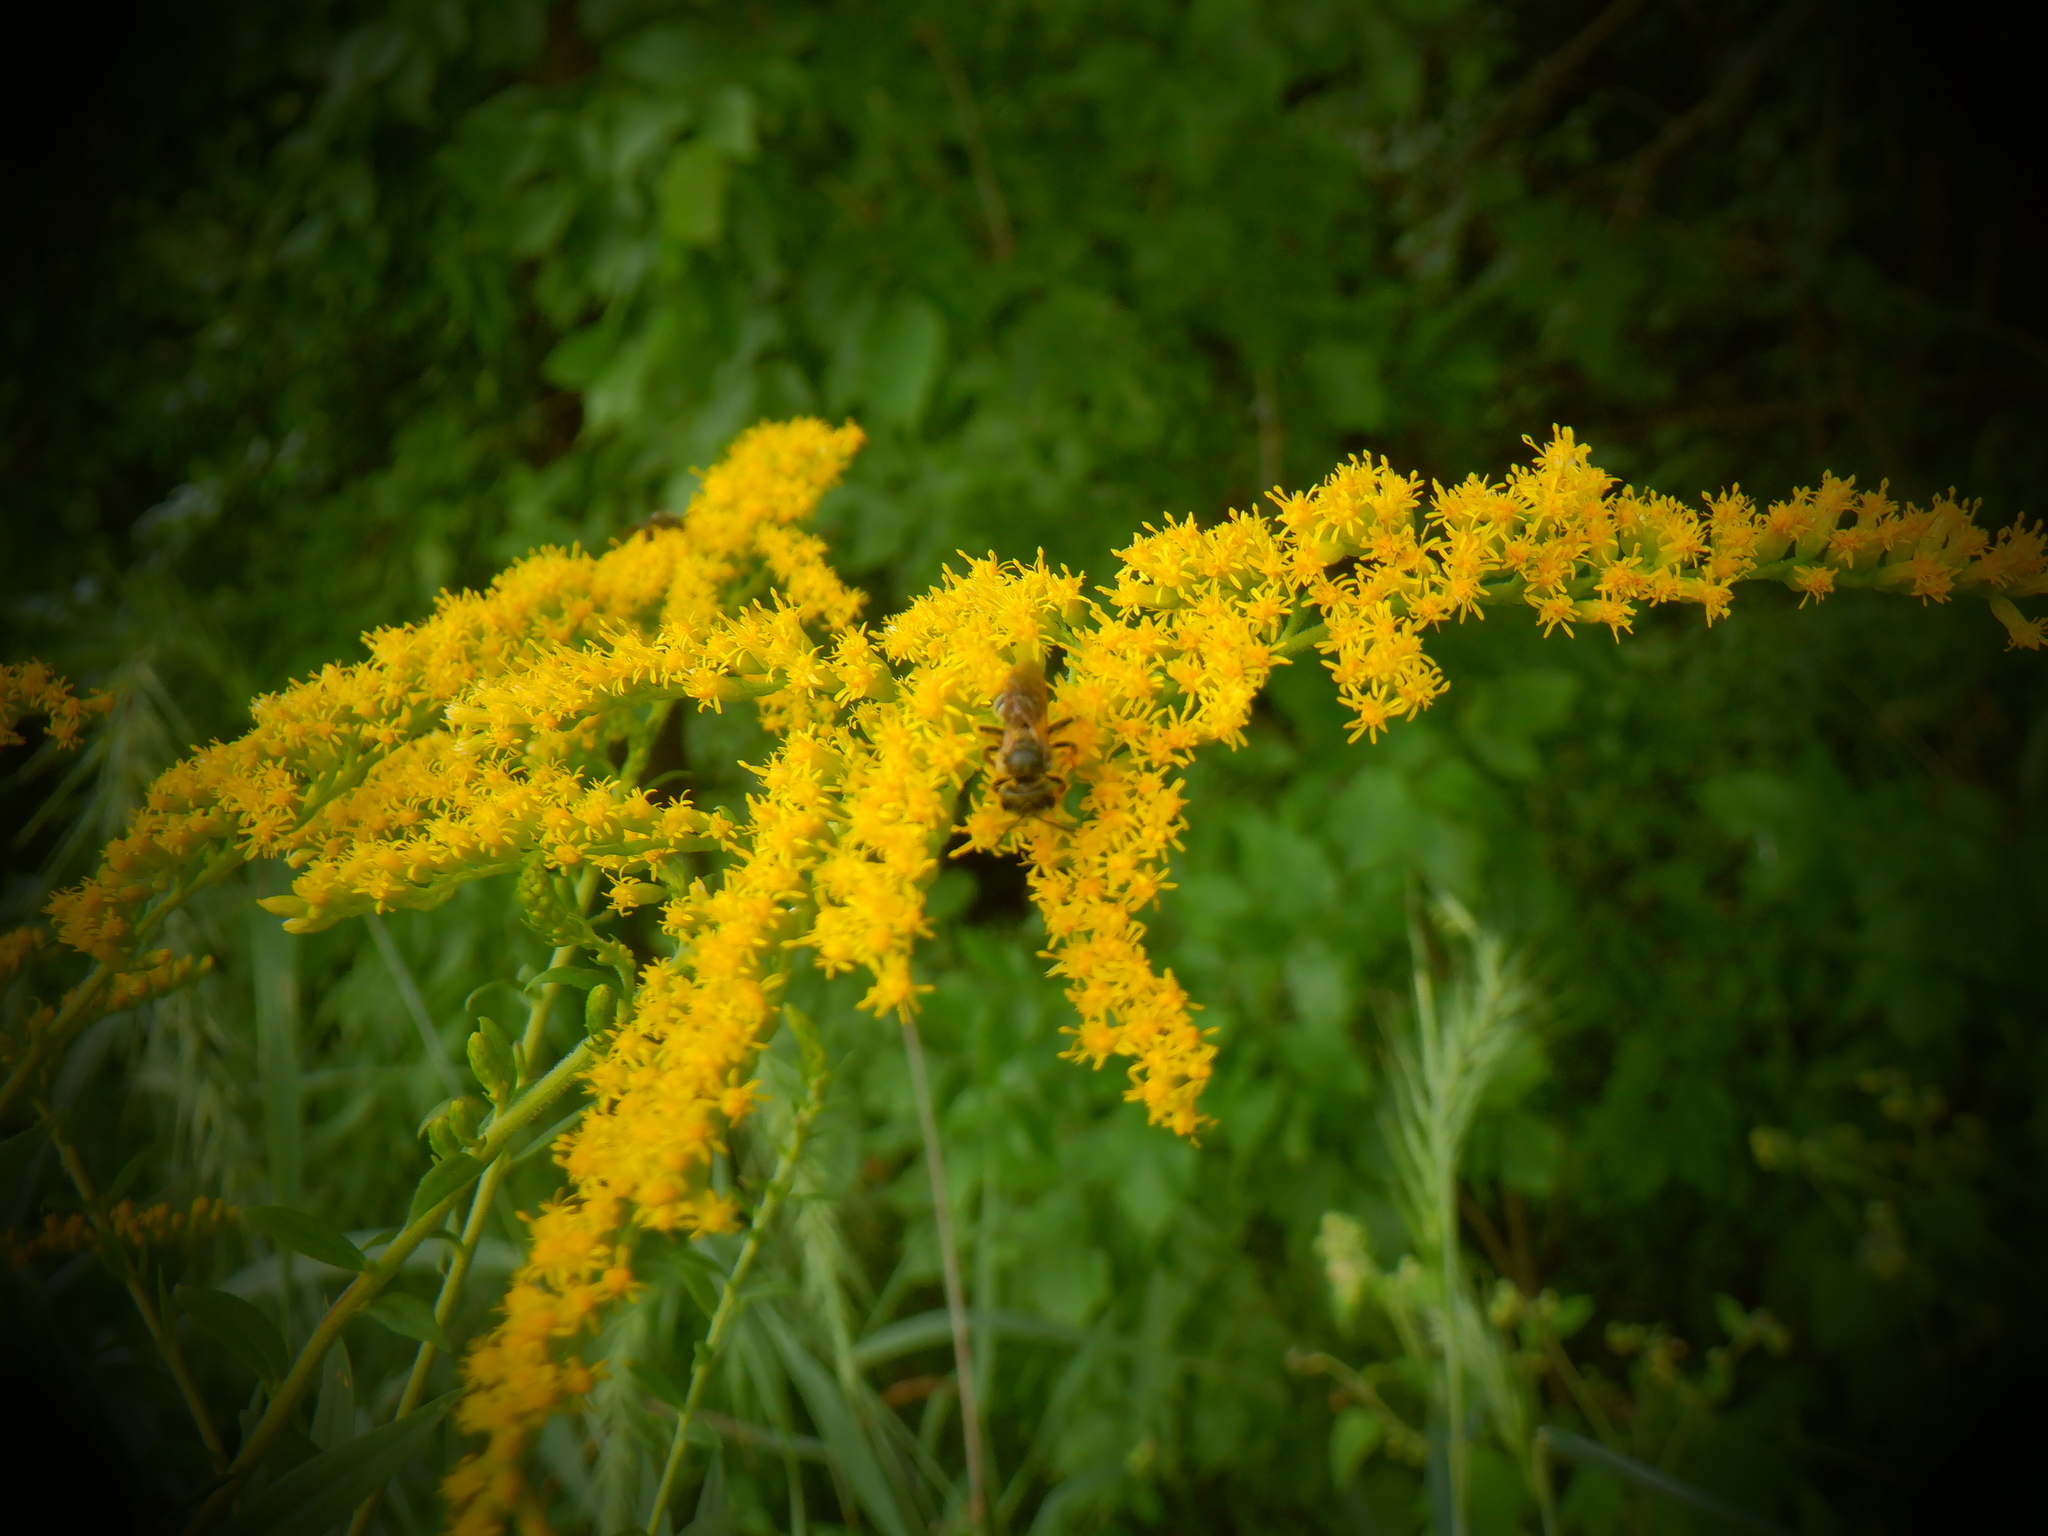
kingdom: Animalia
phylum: Arthropoda
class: Insecta
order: Hymenoptera
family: Halictidae
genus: Halictus
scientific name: Halictus ligatus
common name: Ligated furrow bee
